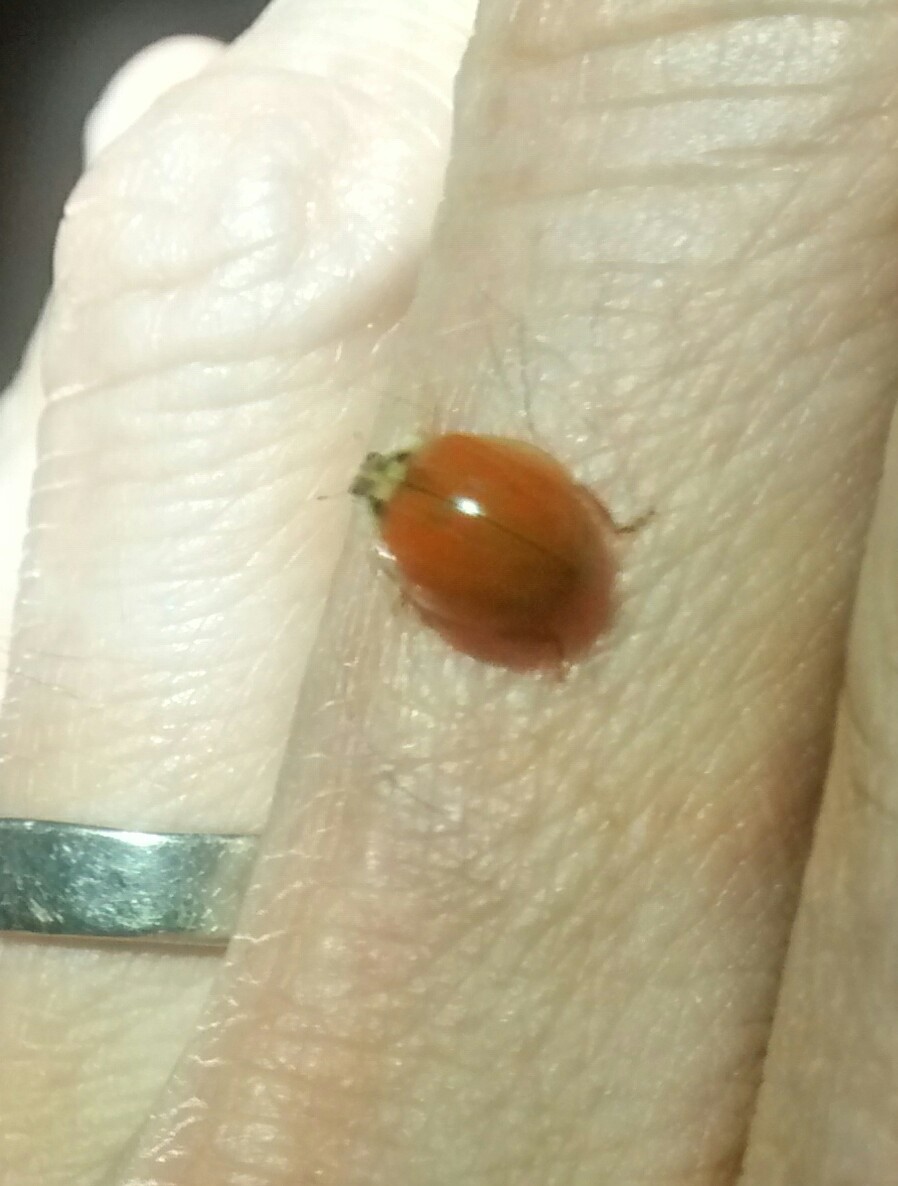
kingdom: Animalia
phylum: Arthropoda
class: Insecta
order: Coleoptera
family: Coccinellidae
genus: Harmonia
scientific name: Harmonia axyridis
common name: Harlequin ladybird
